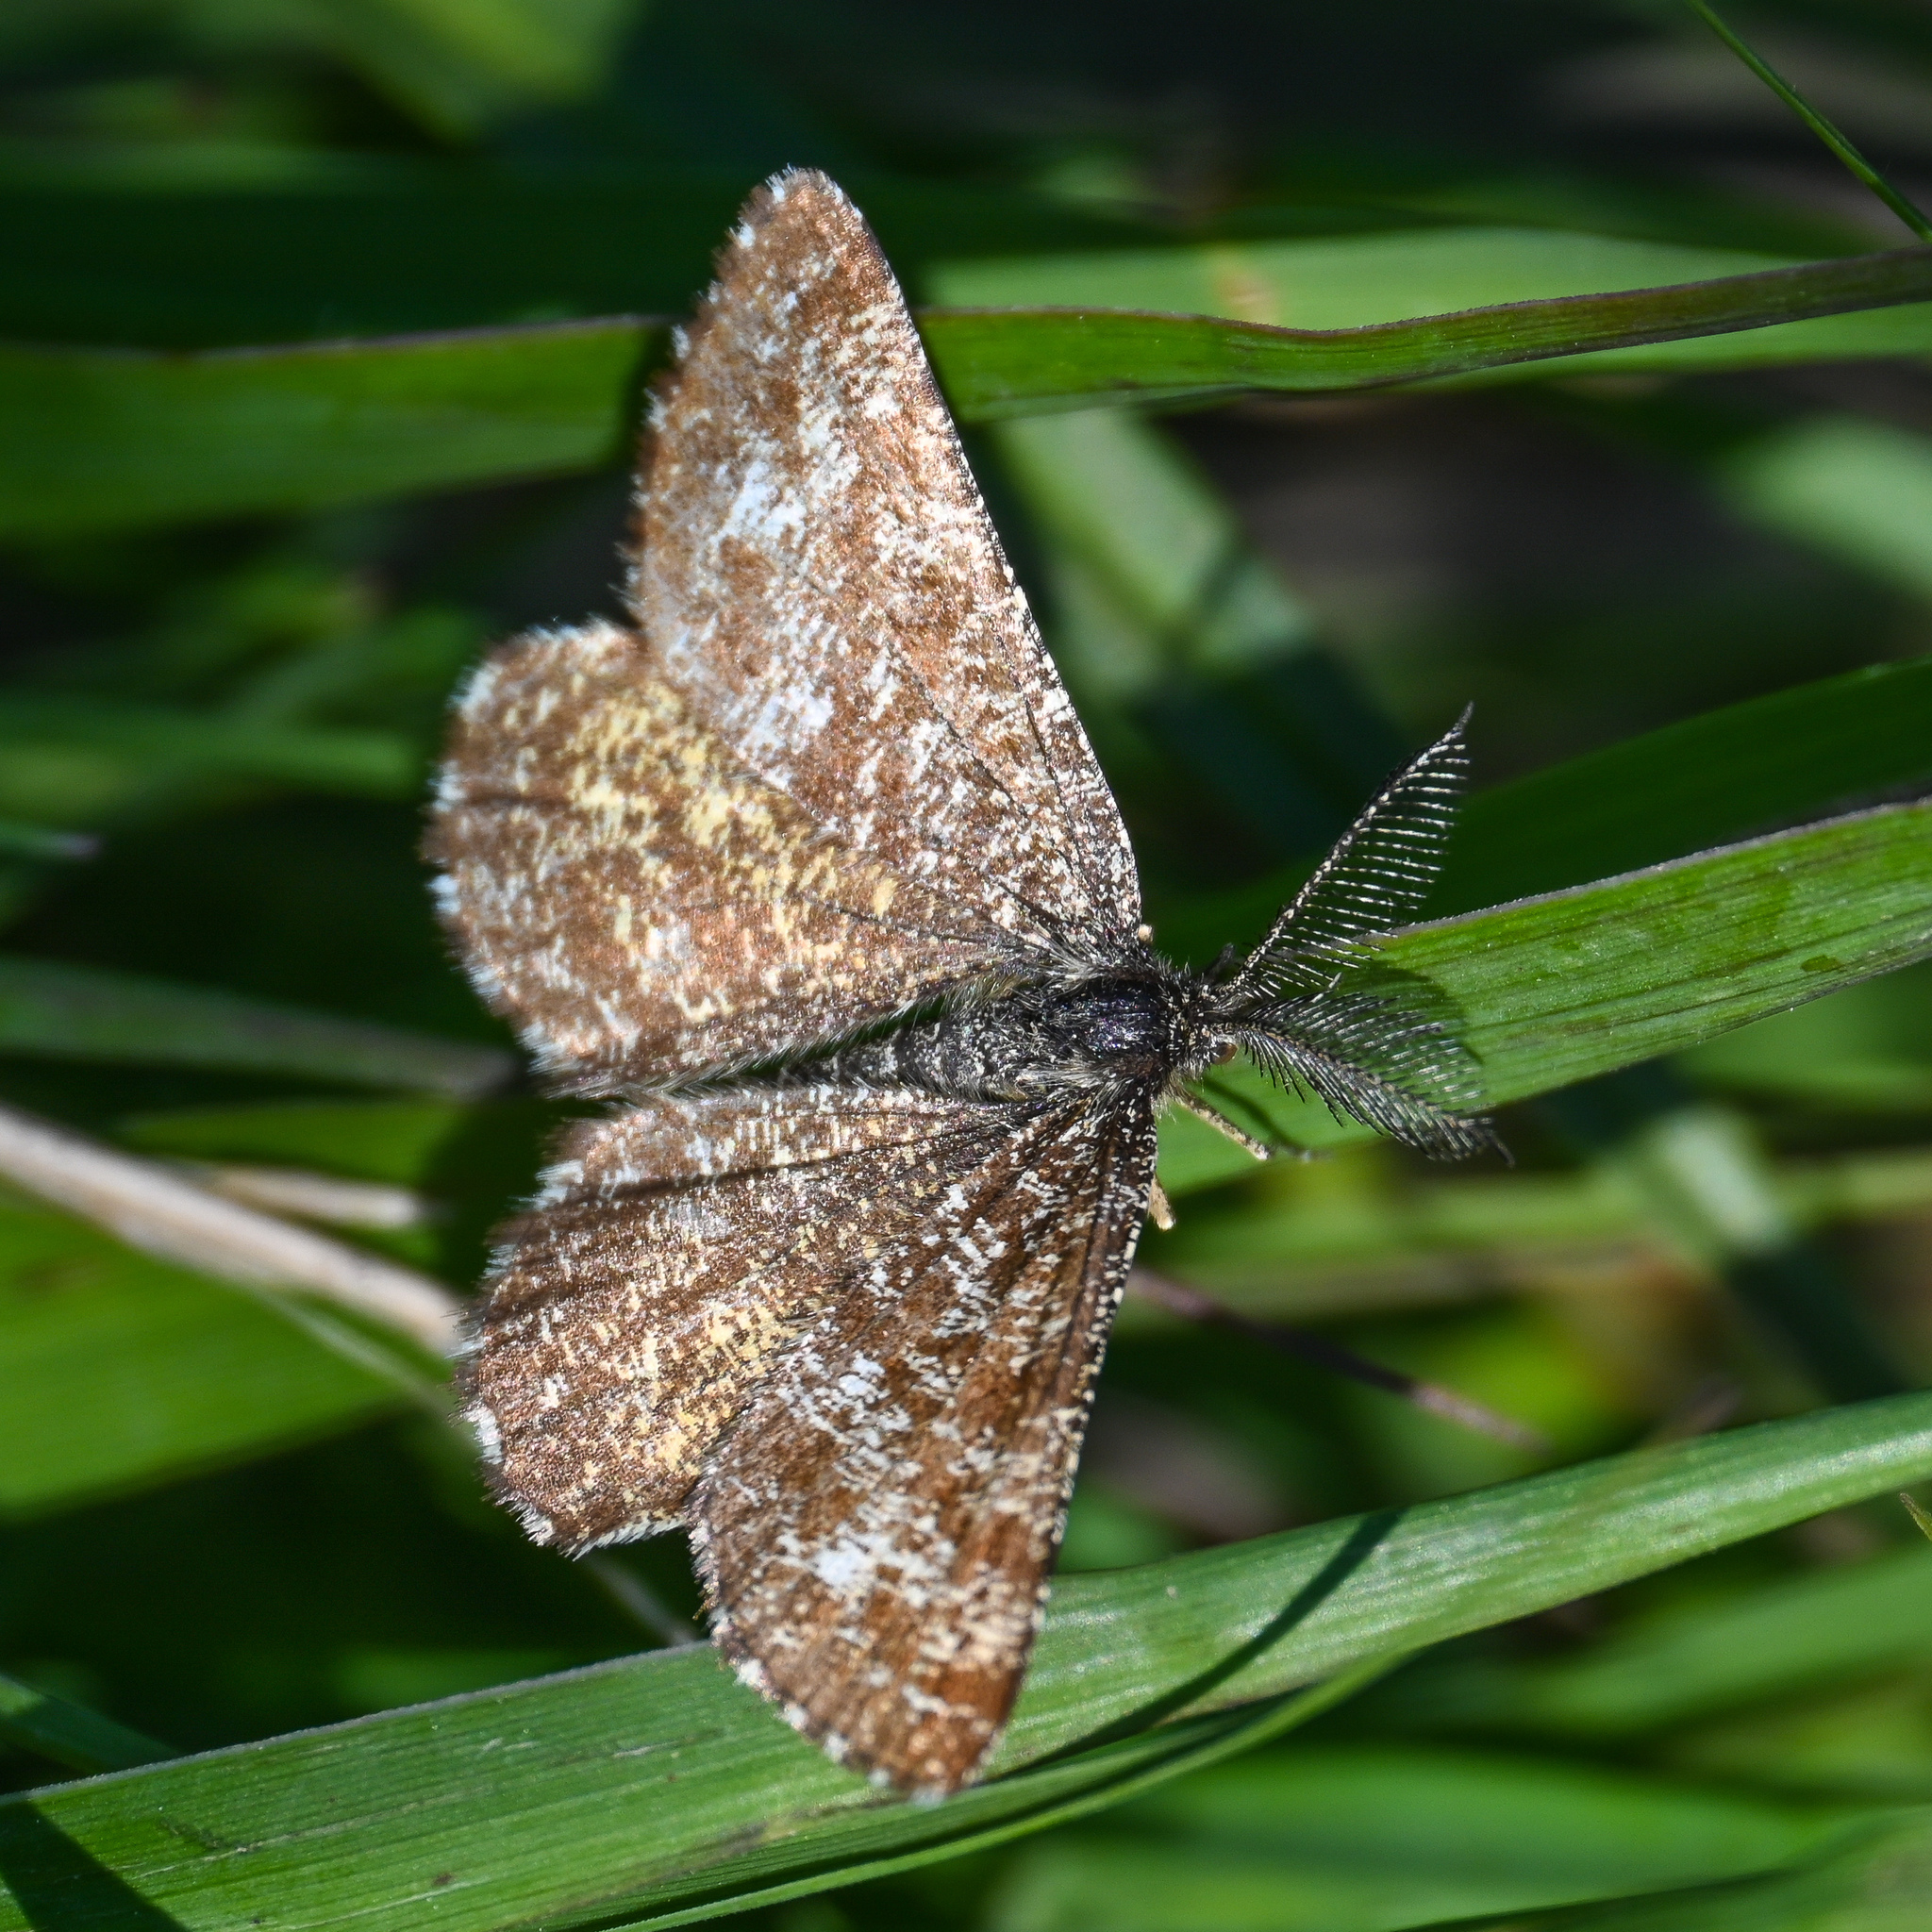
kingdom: Animalia
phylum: Arthropoda
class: Insecta
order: Lepidoptera
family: Geometridae
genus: Ematurga
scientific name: Ematurga atomaria
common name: Common heath
